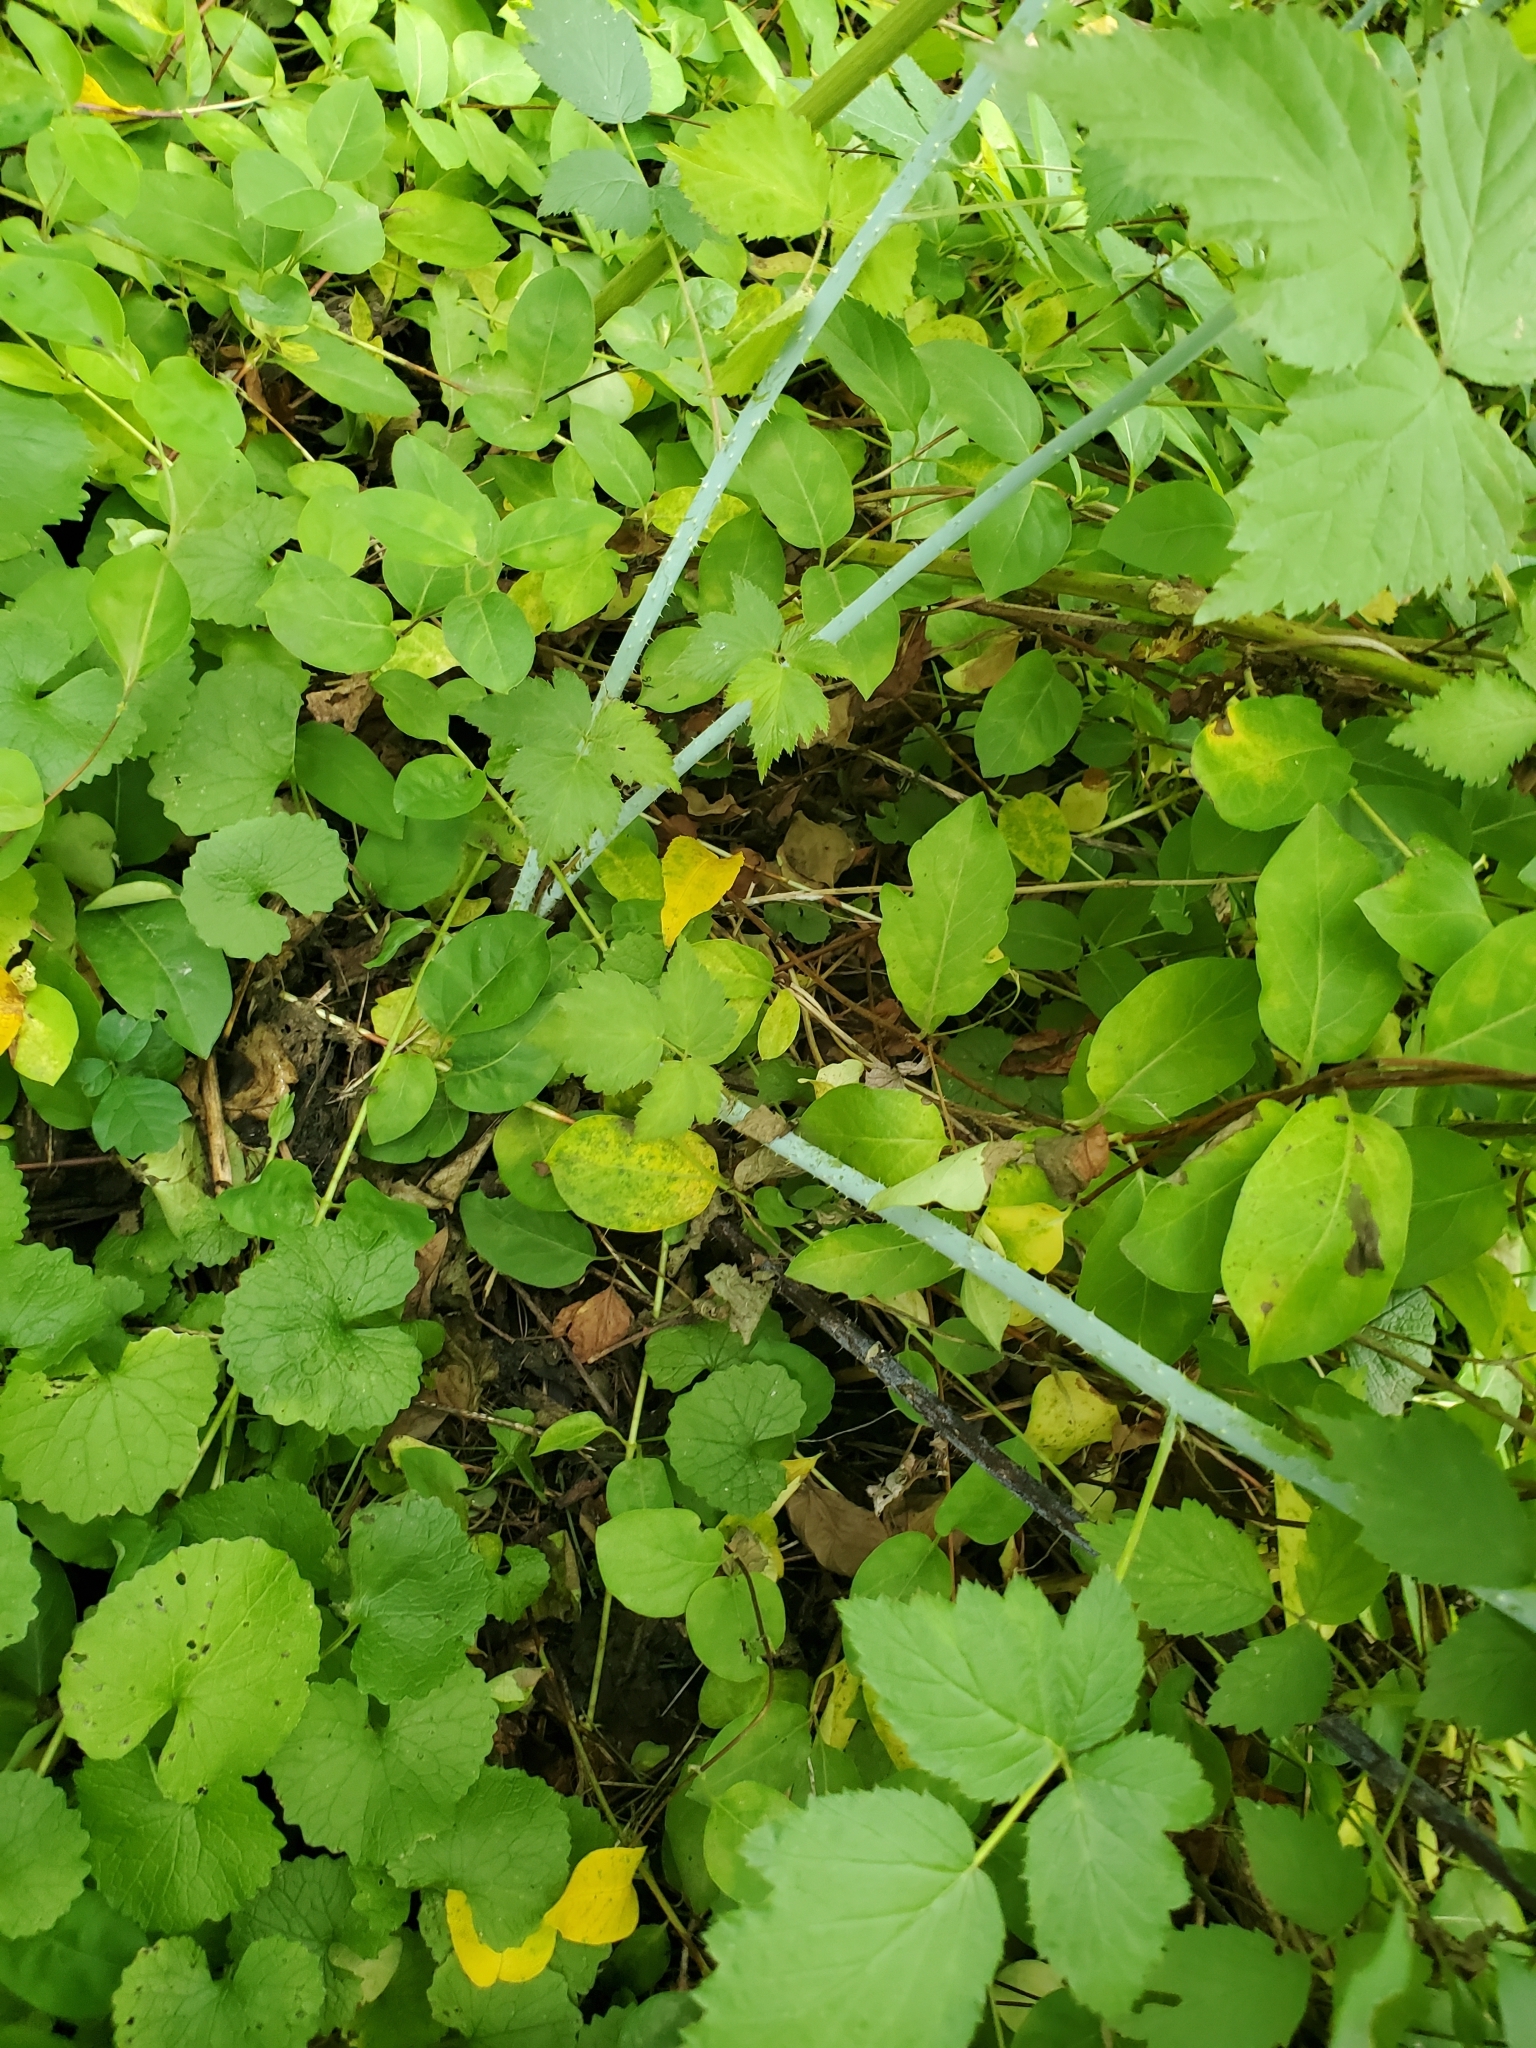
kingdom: Plantae
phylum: Tracheophyta
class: Magnoliopsida
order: Rosales
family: Rosaceae
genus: Rubus
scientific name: Rubus occidentalis
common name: Black raspberry
